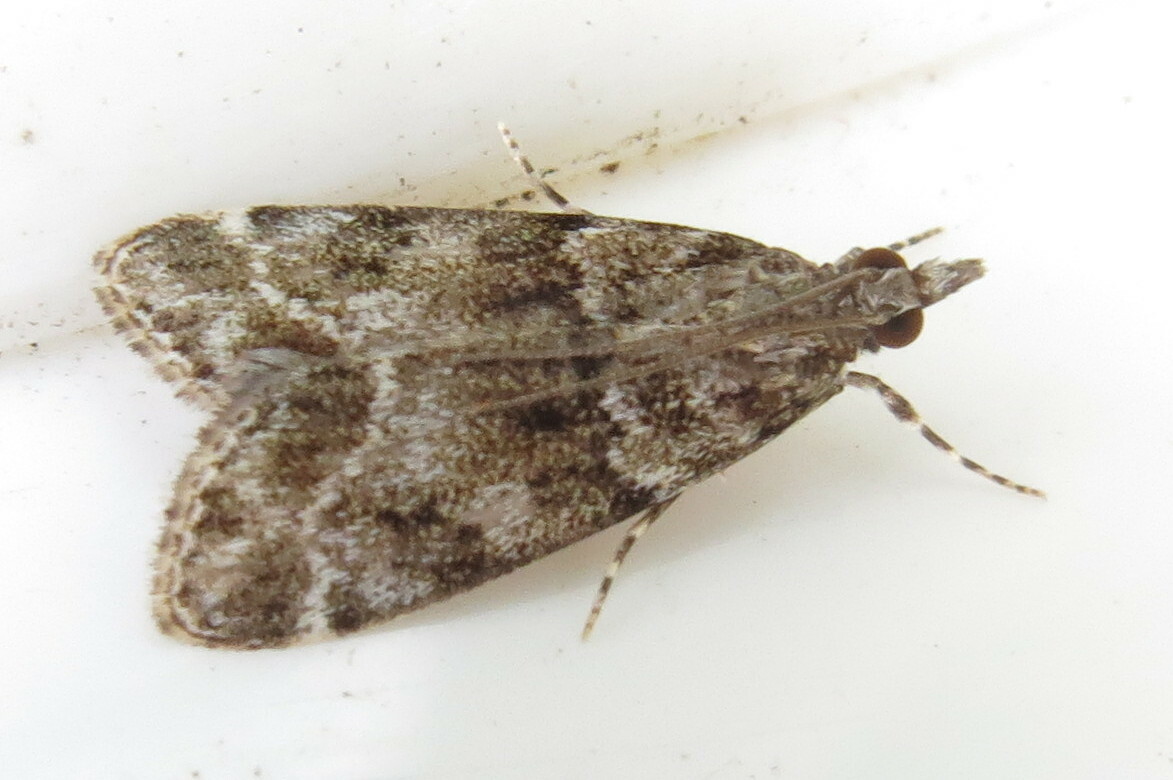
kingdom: Animalia
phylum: Arthropoda
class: Insecta
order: Lepidoptera
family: Crambidae
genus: Eudonia
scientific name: Eudonia mercurella
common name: Small grey
